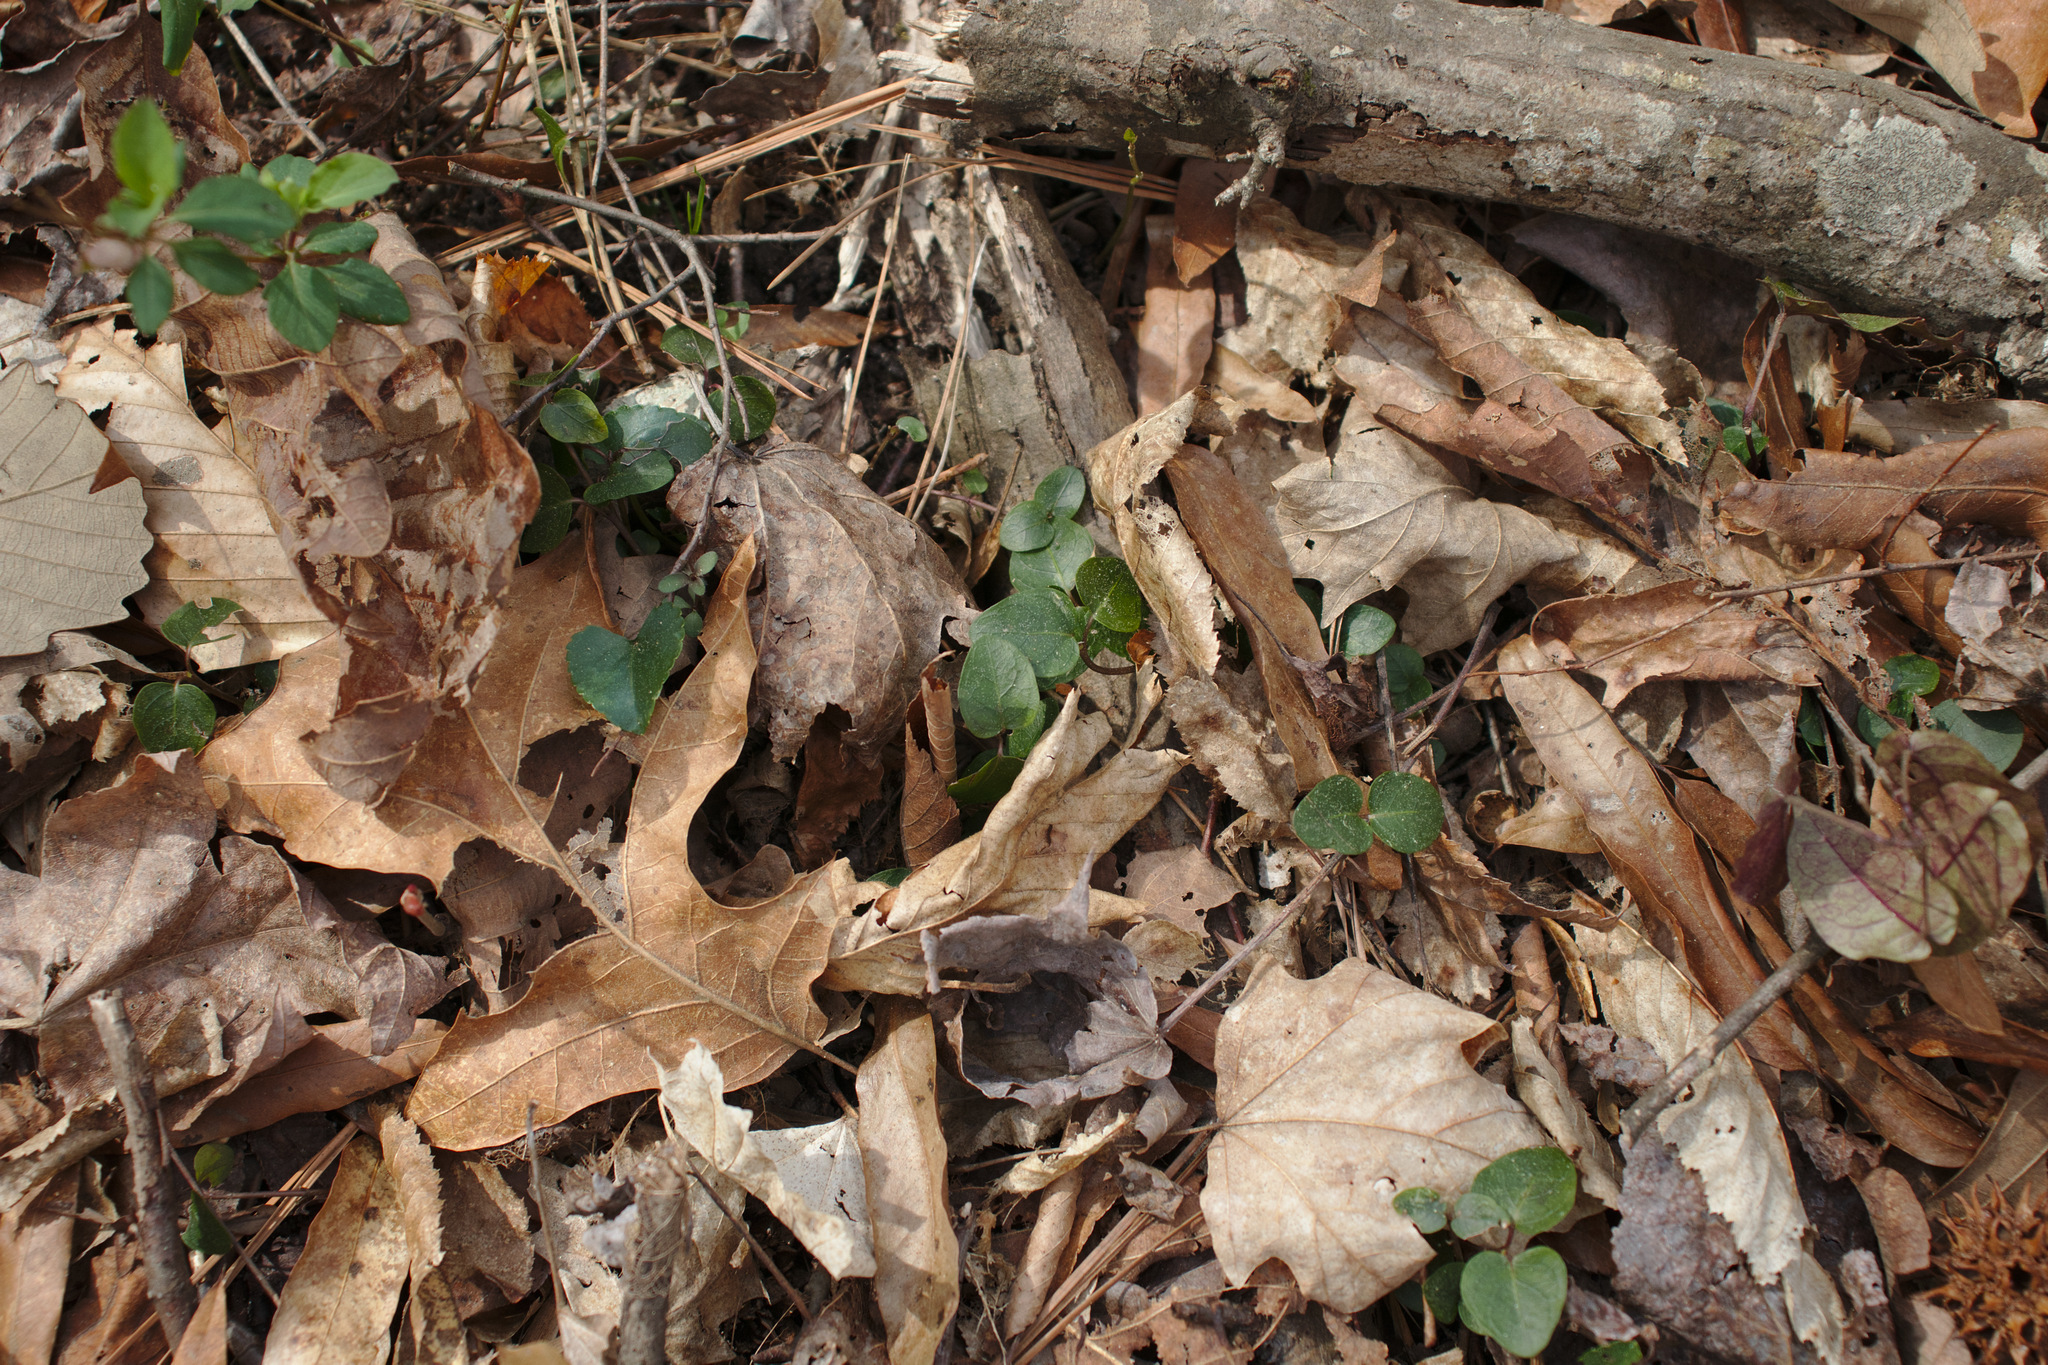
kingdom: Plantae
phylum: Tracheophyta
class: Magnoliopsida
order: Gentianales
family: Rubiaceae
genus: Mitchella
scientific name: Mitchella repens
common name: Partridge-berry
